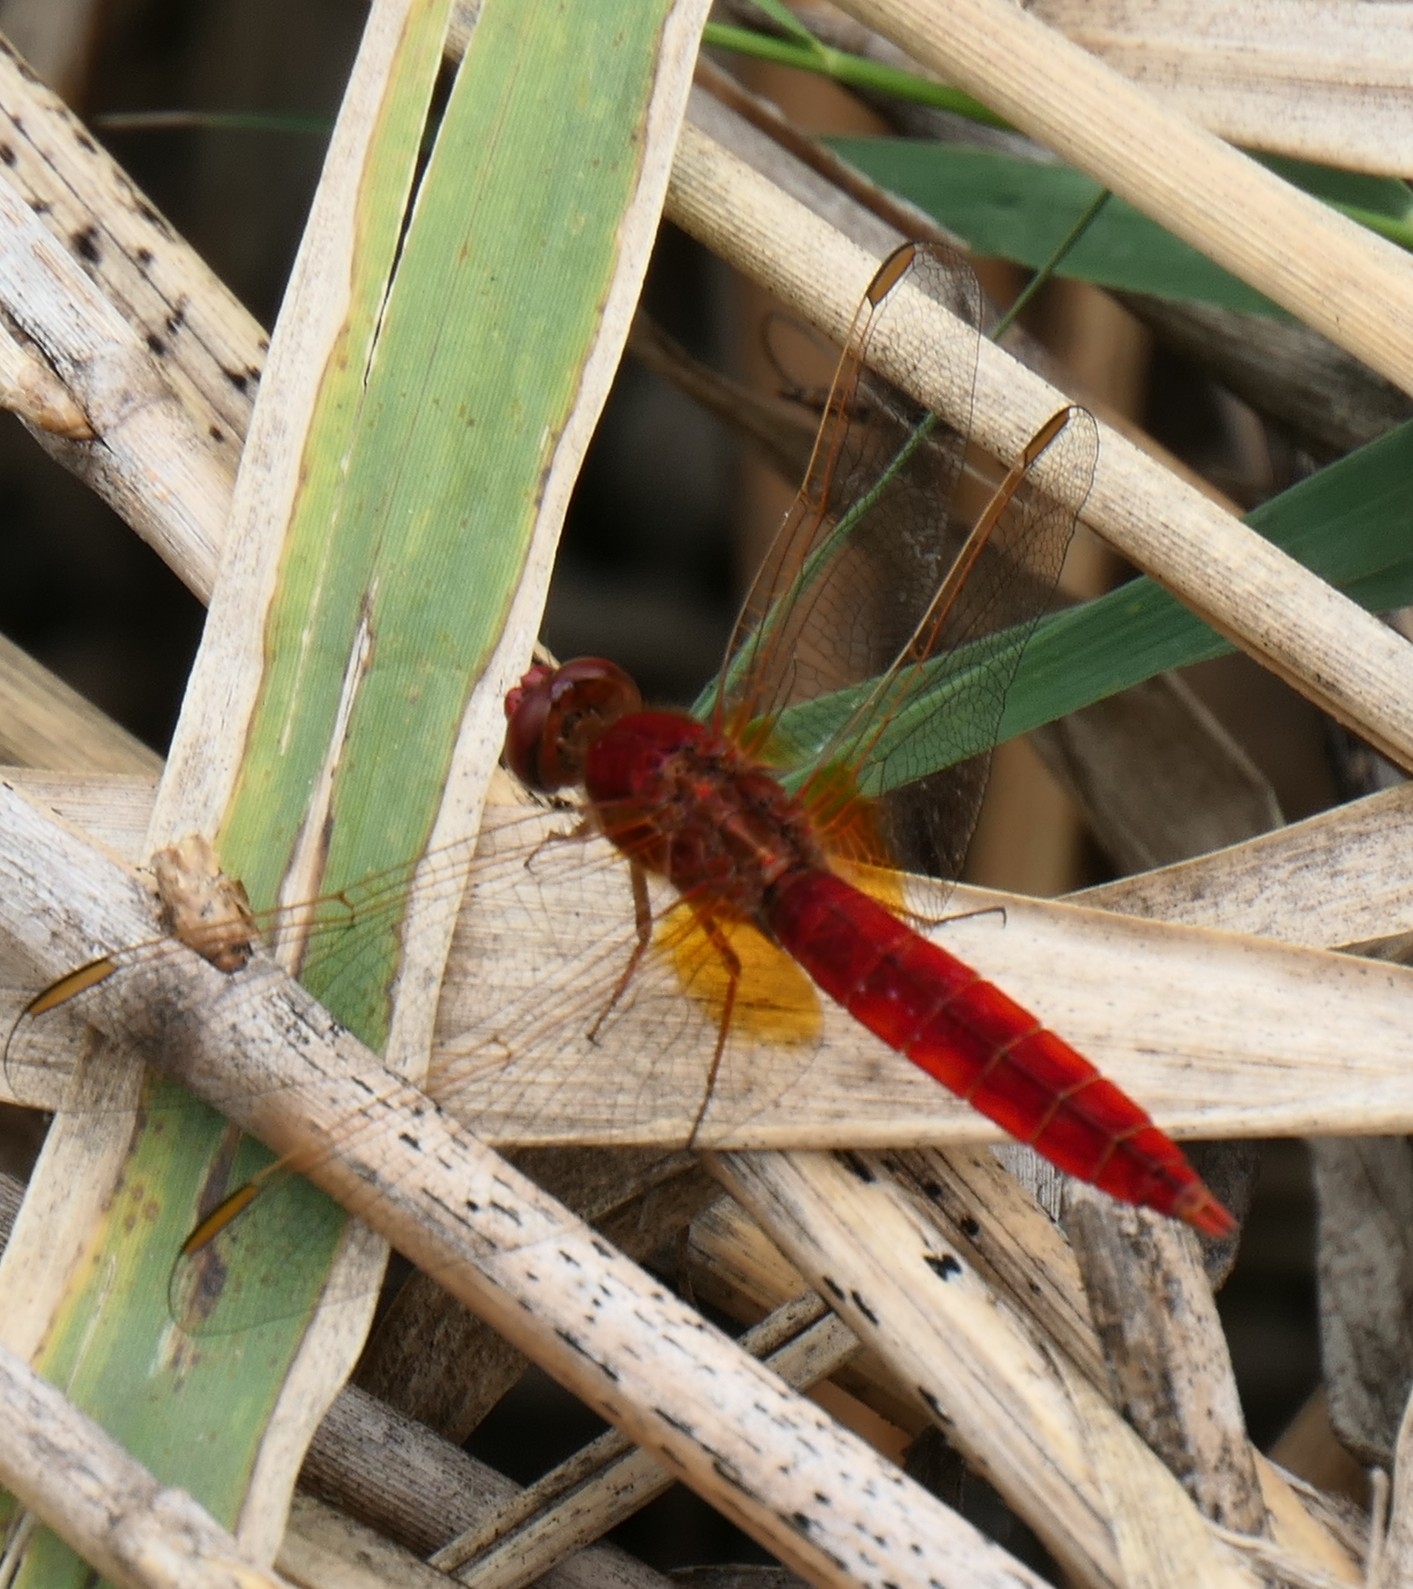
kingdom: Animalia
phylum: Arthropoda
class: Insecta
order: Odonata
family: Libellulidae
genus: Crocothemis
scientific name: Crocothemis erythraea
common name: Scarlet dragonfly
